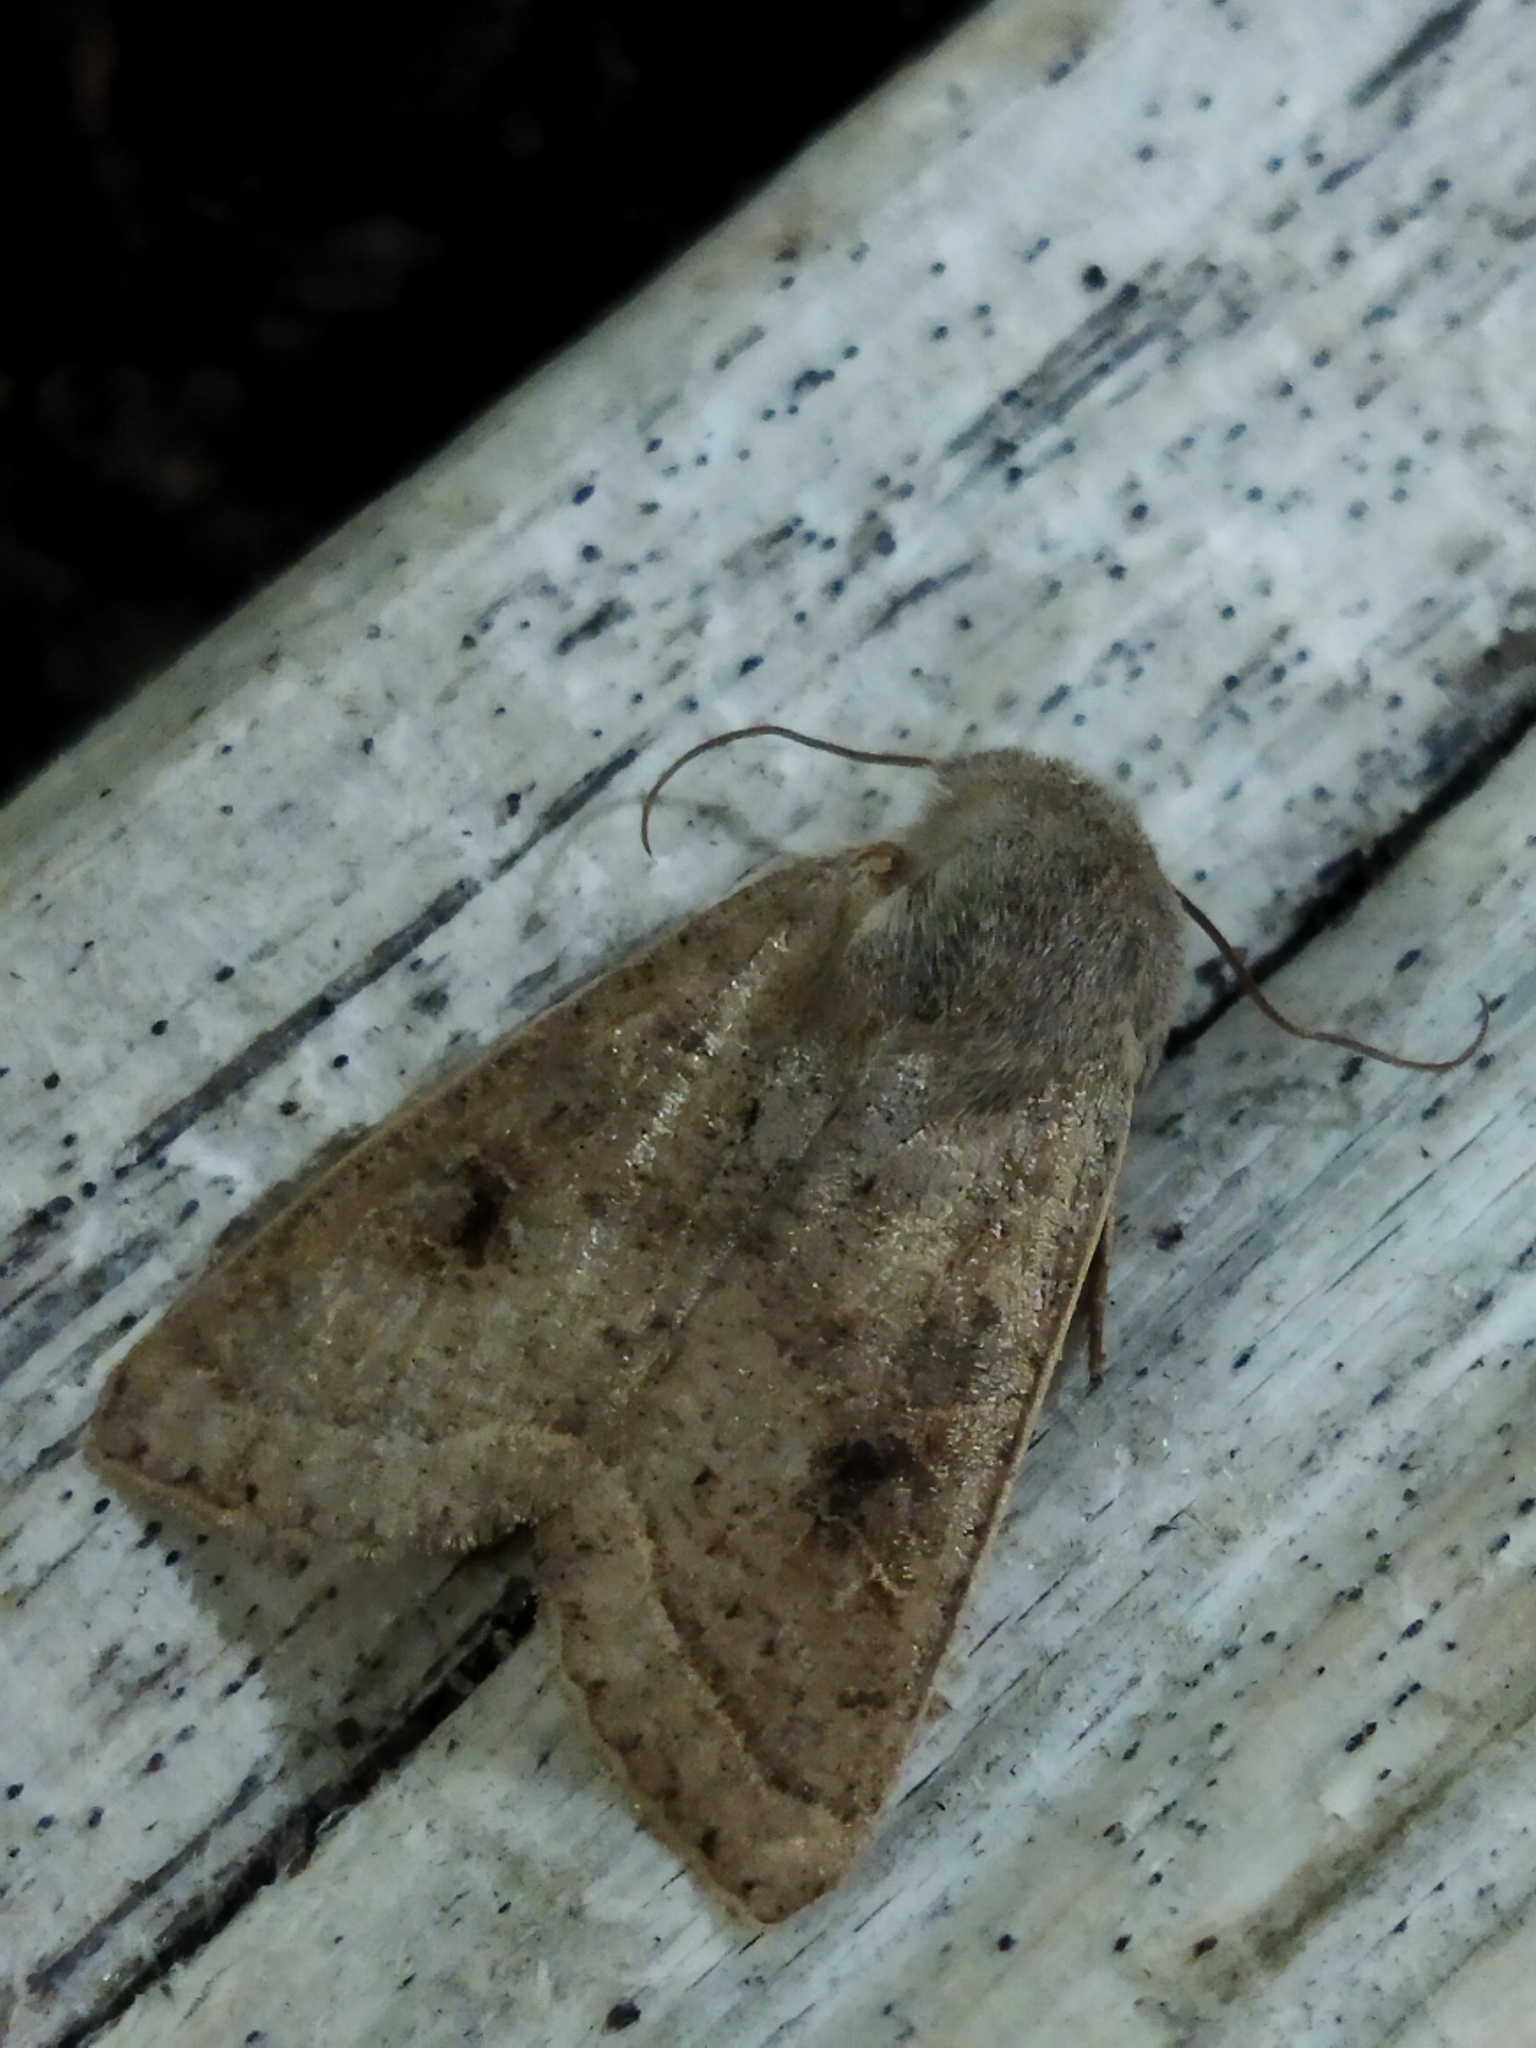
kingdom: Animalia
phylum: Arthropoda
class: Insecta
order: Lepidoptera
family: Noctuidae
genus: Orthosia
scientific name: Orthosia gracilis
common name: Powdered quaker
